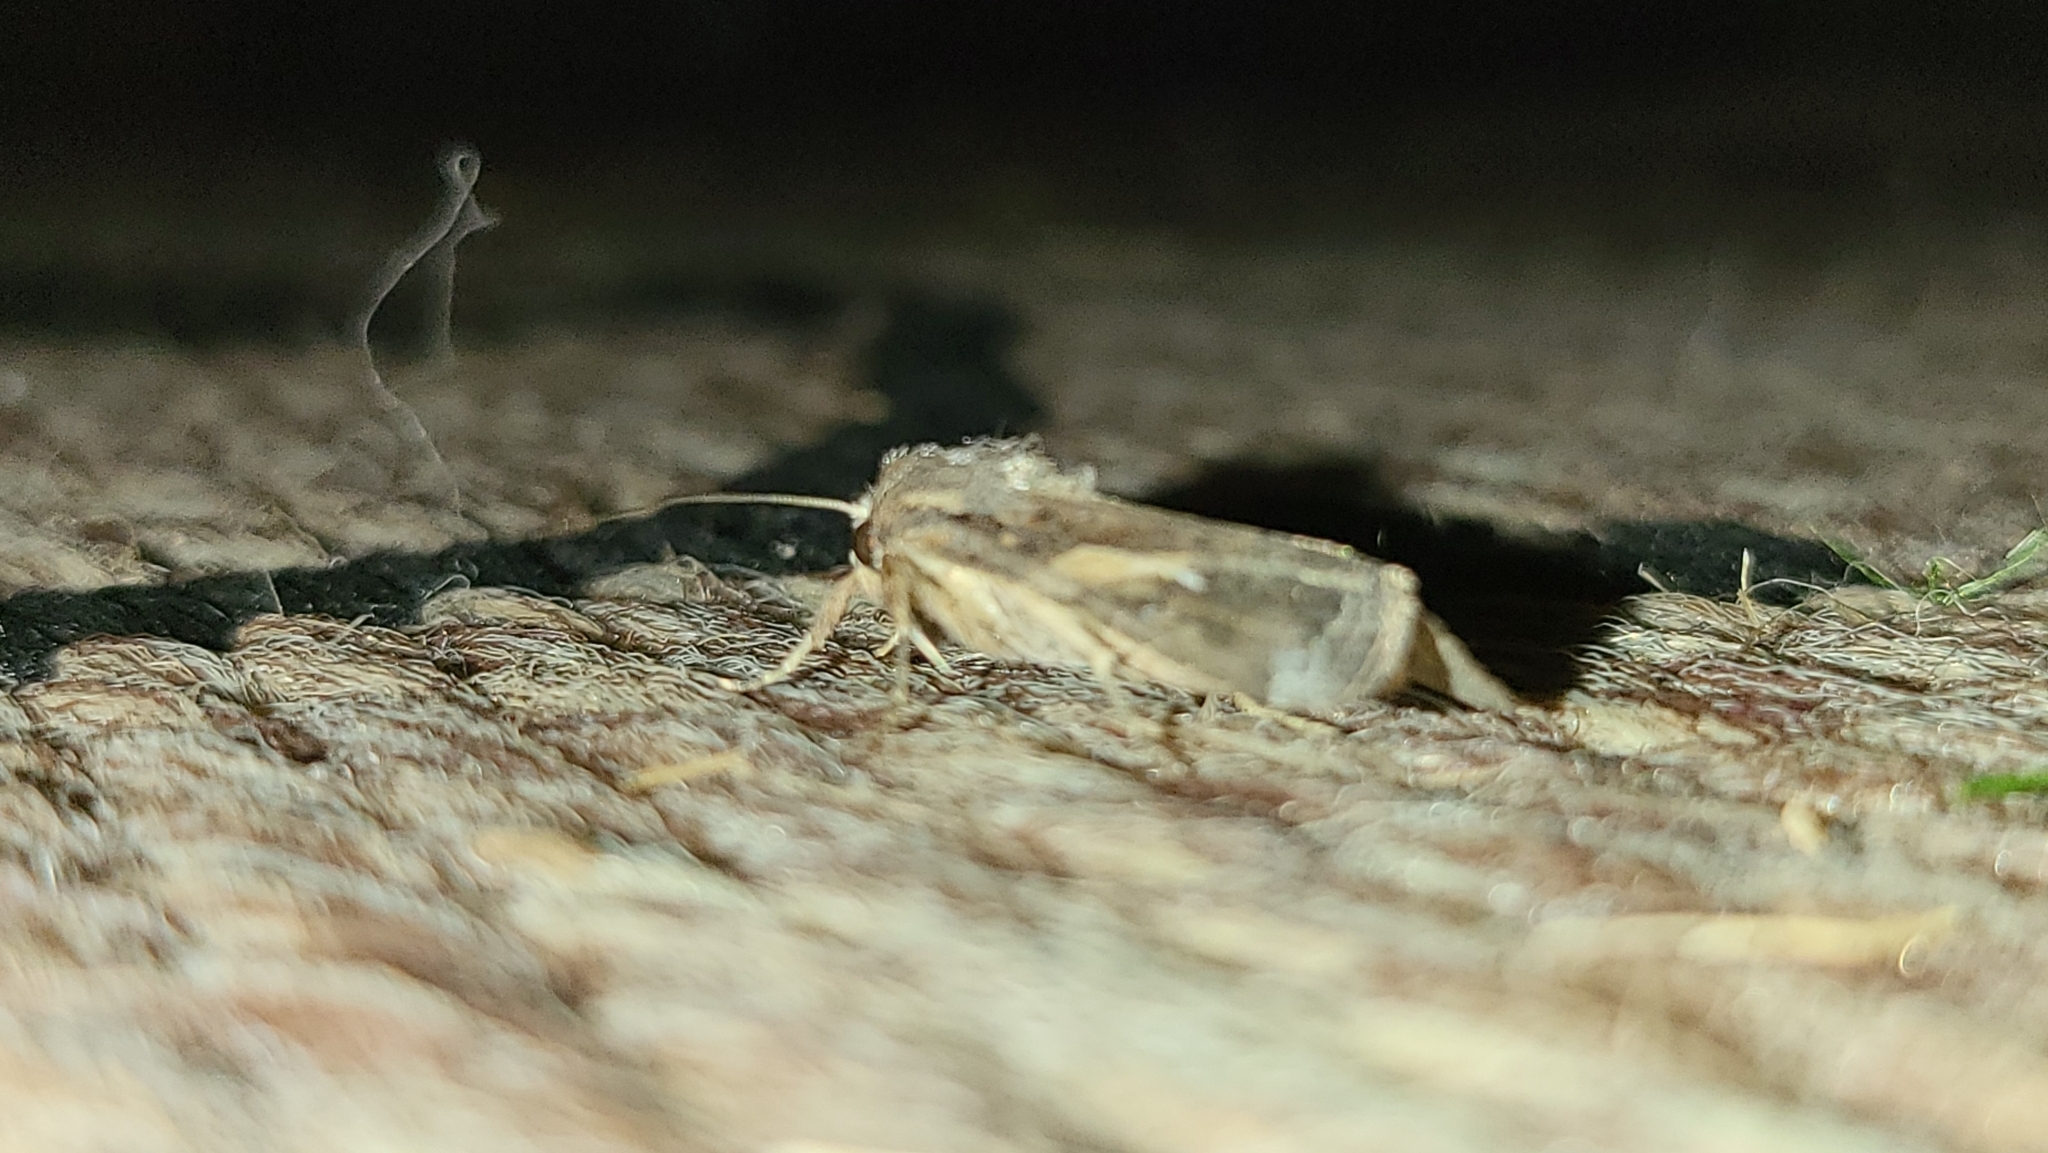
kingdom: Animalia
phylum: Arthropoda
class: Insecta
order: Lepidoptera
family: Noctuidae
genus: Spodoptera
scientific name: Spodoptera frugiperda
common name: Fall armyworm
